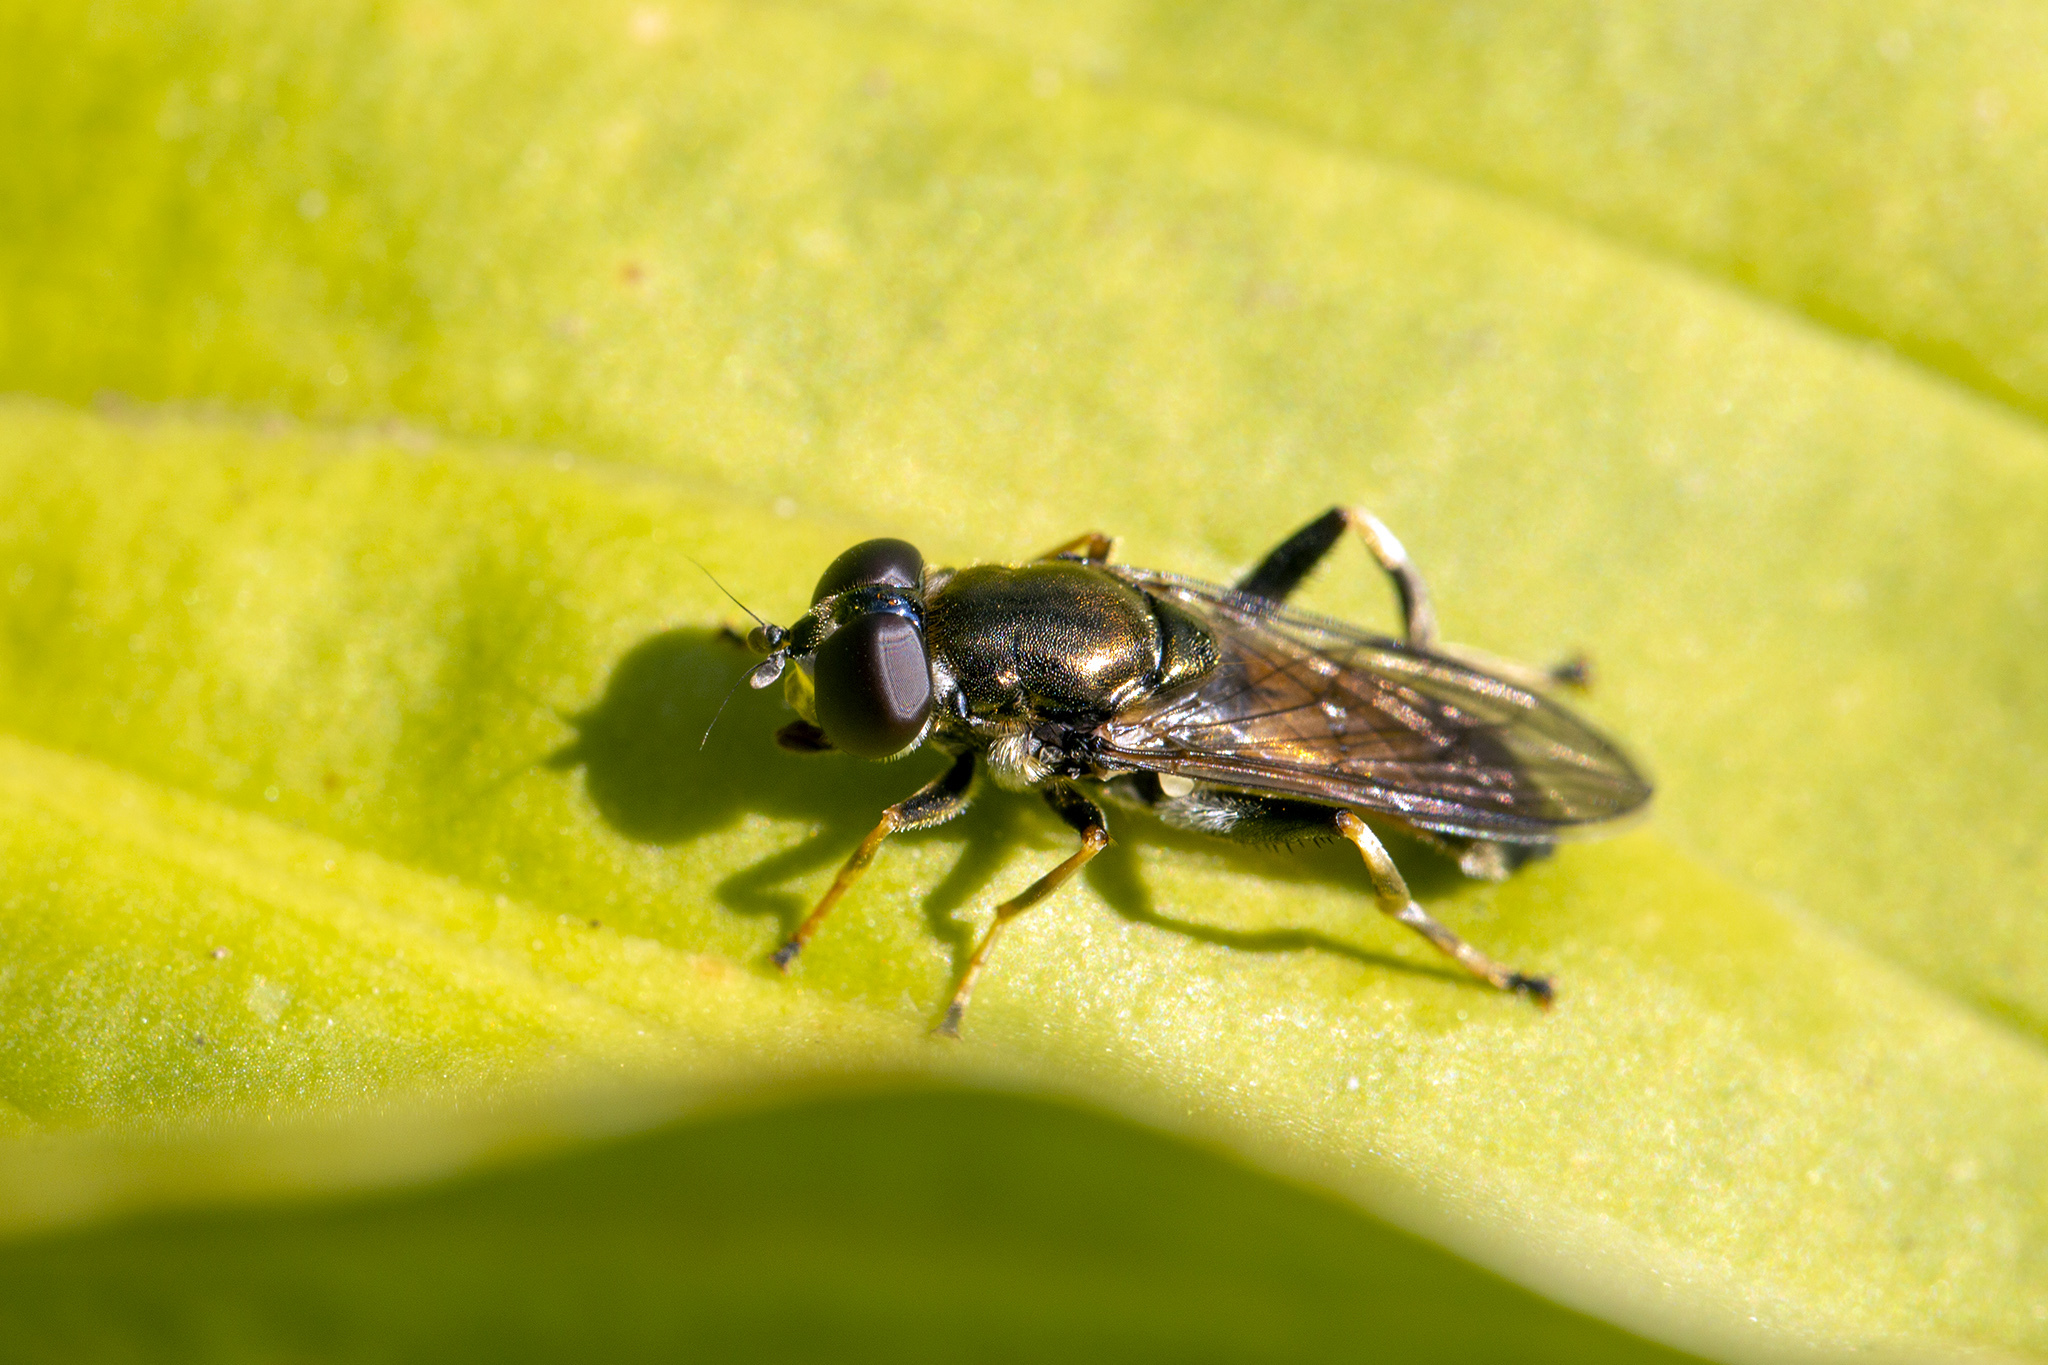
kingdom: Animalia
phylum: Arthropoda
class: Insecta
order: Diptera
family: Syrphidae
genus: Xylota
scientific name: Xylota segnis
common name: Brown-toed forest fly
